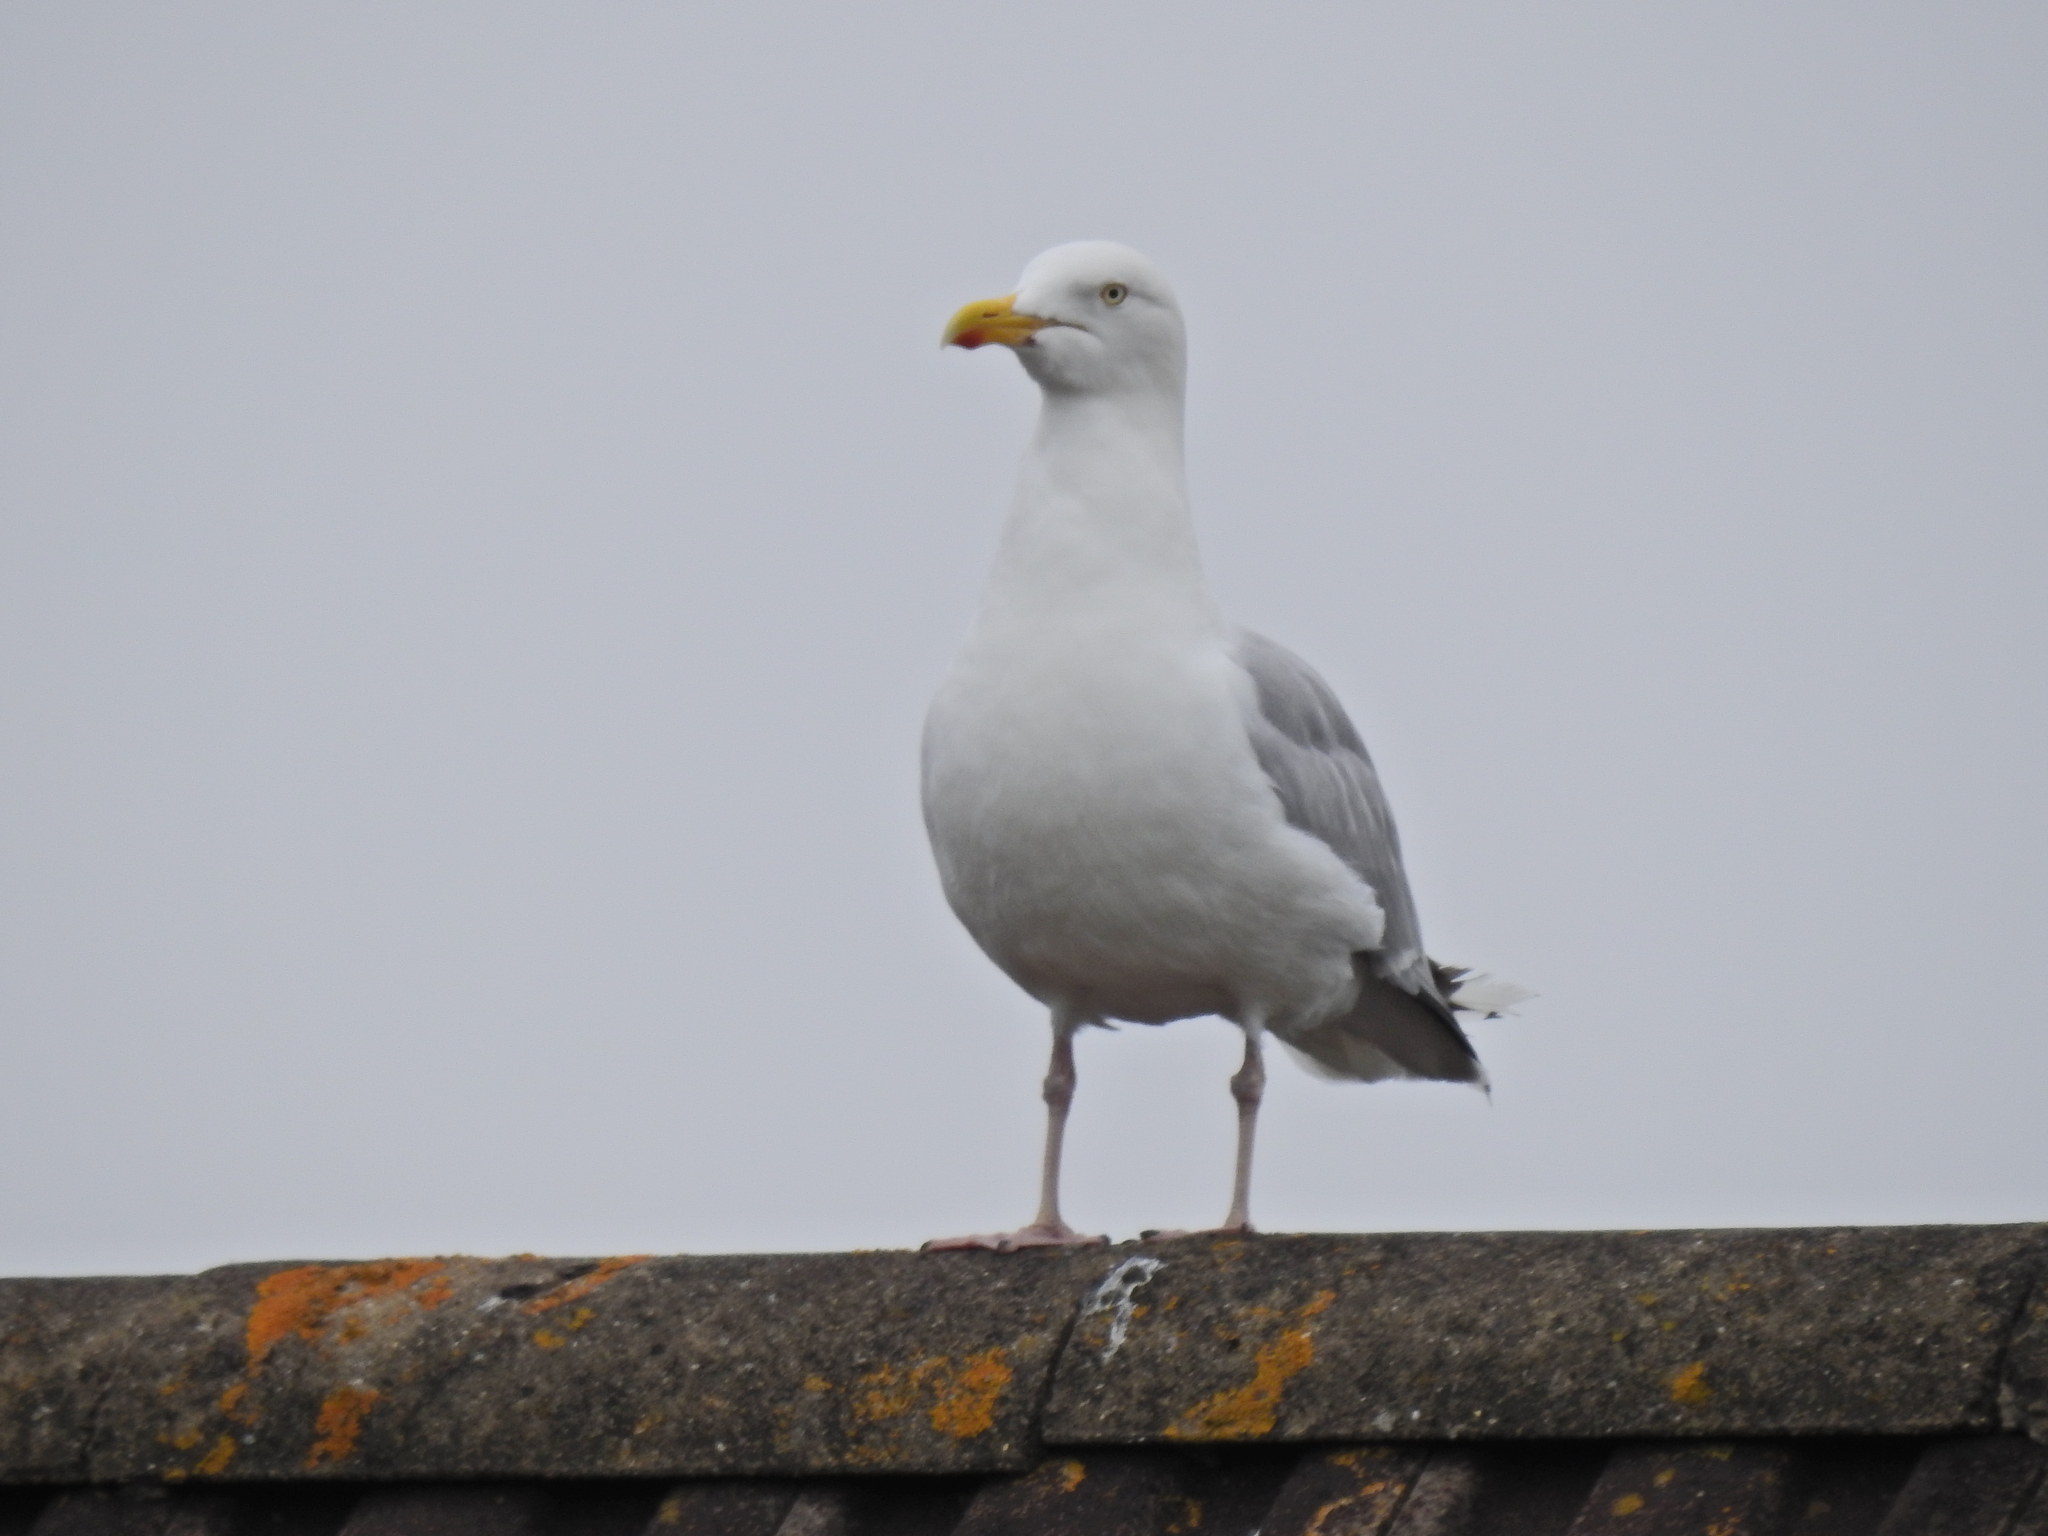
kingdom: Animalia
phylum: Chordata
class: Aves
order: Charadriiformes
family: Laridae
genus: Larus
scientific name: Larus argentatus
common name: Herring gull
